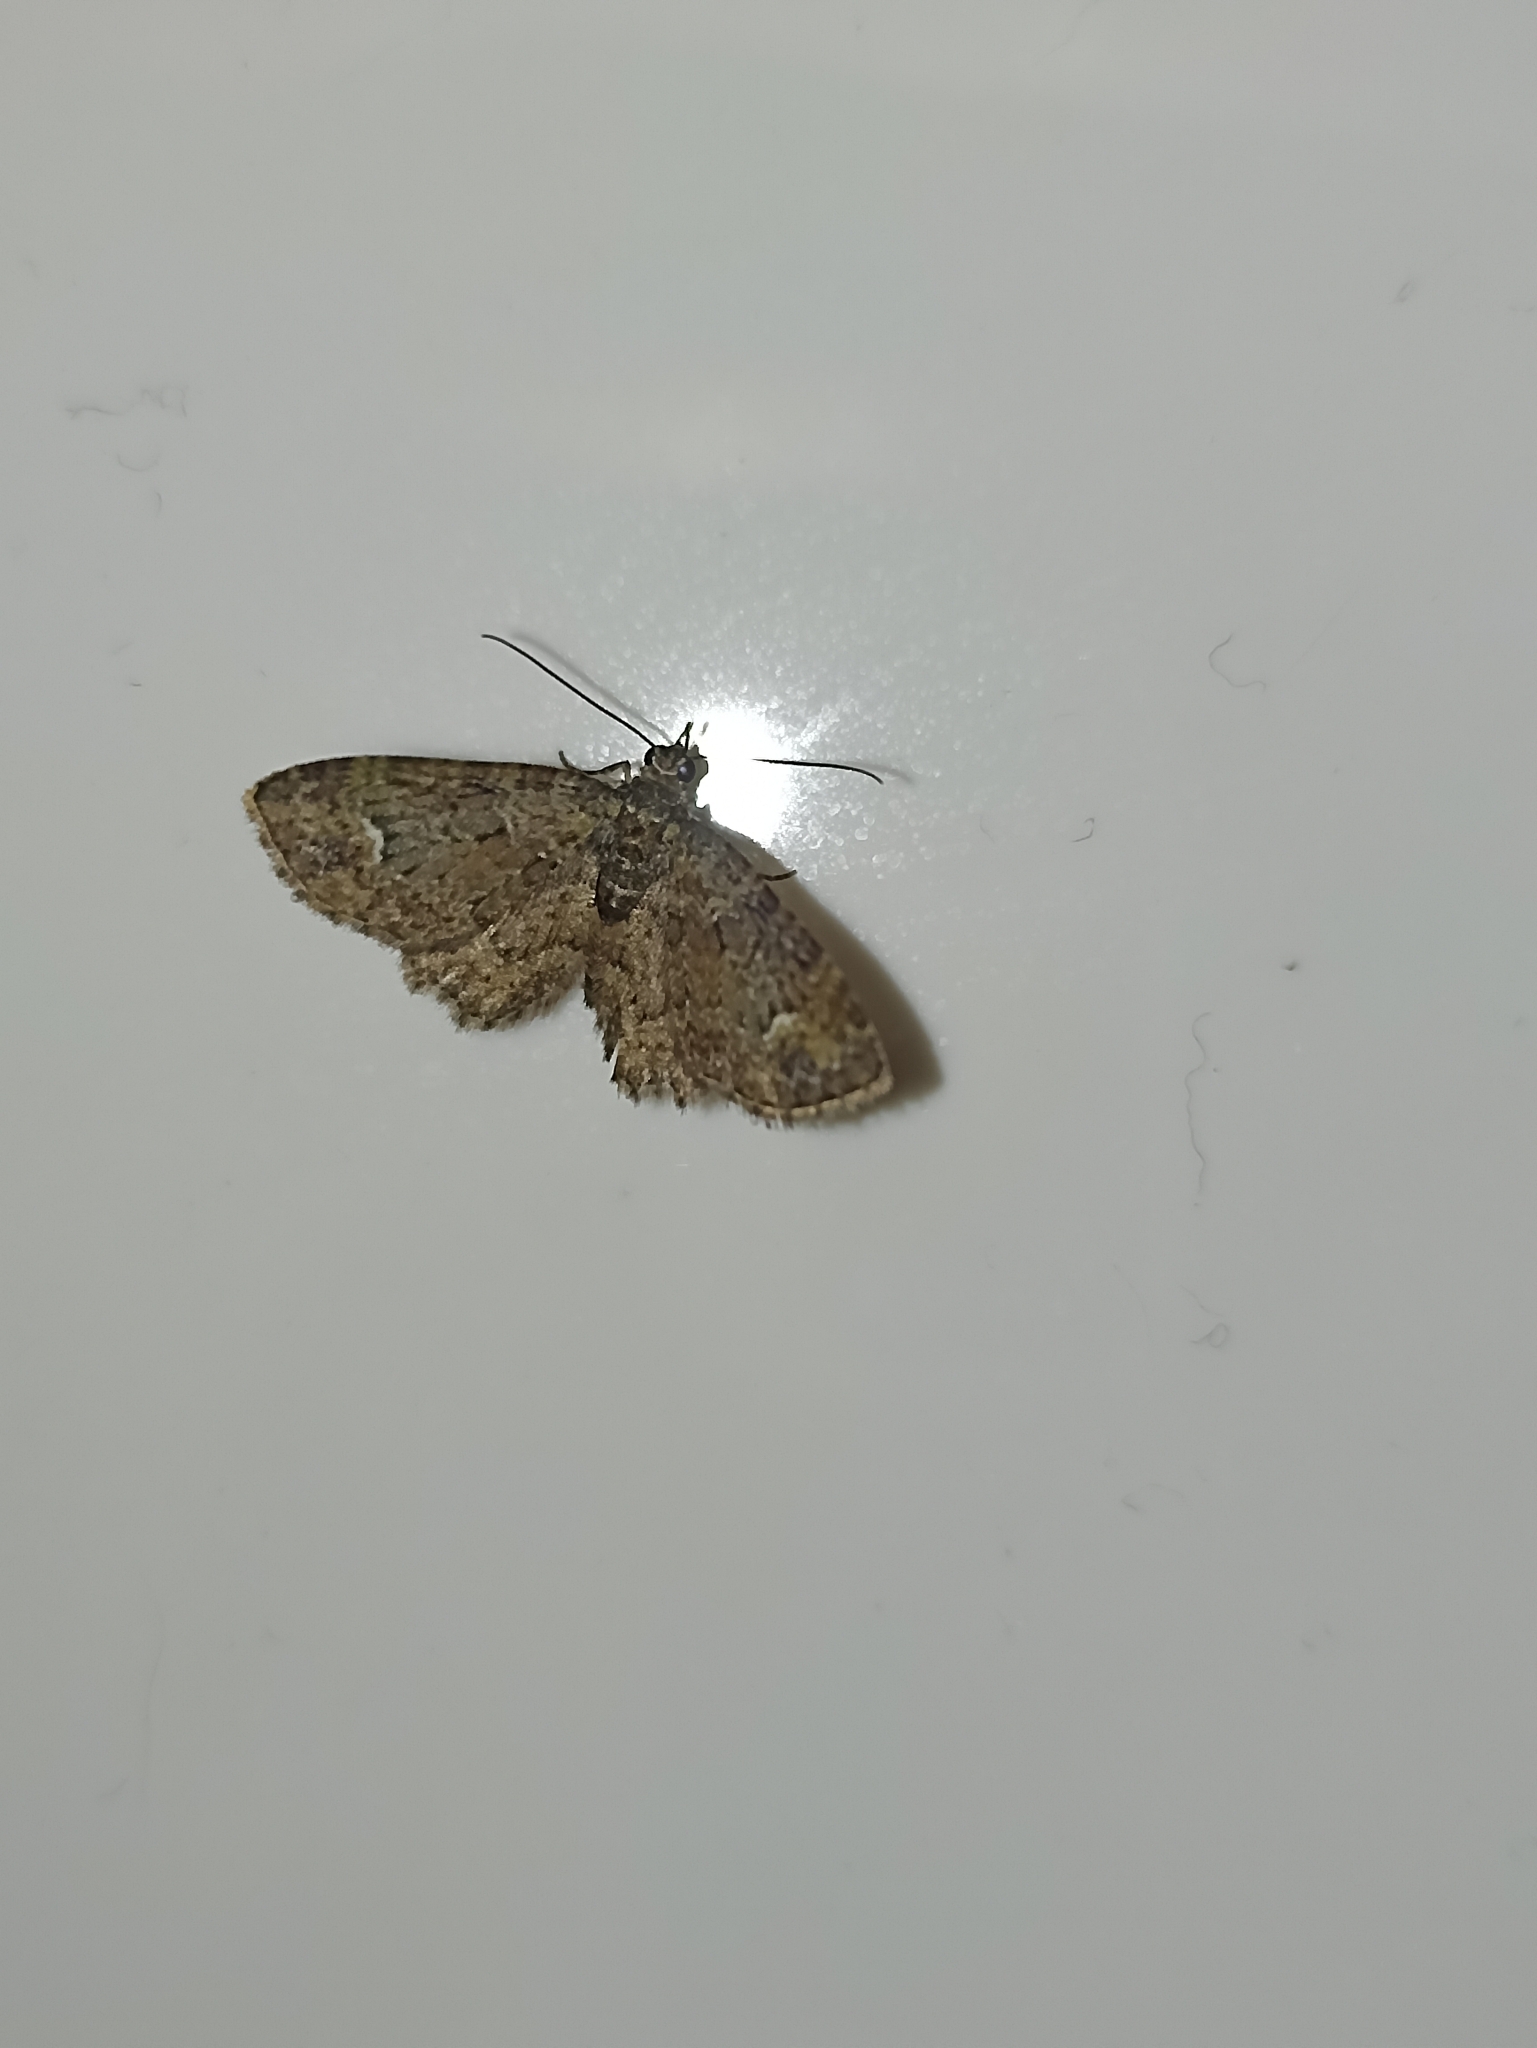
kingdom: Animalia
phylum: Arthropoda
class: Insecta
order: Lepidoptera
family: Geometridae
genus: Pasiphilodes
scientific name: Pasiphilodes testulata
